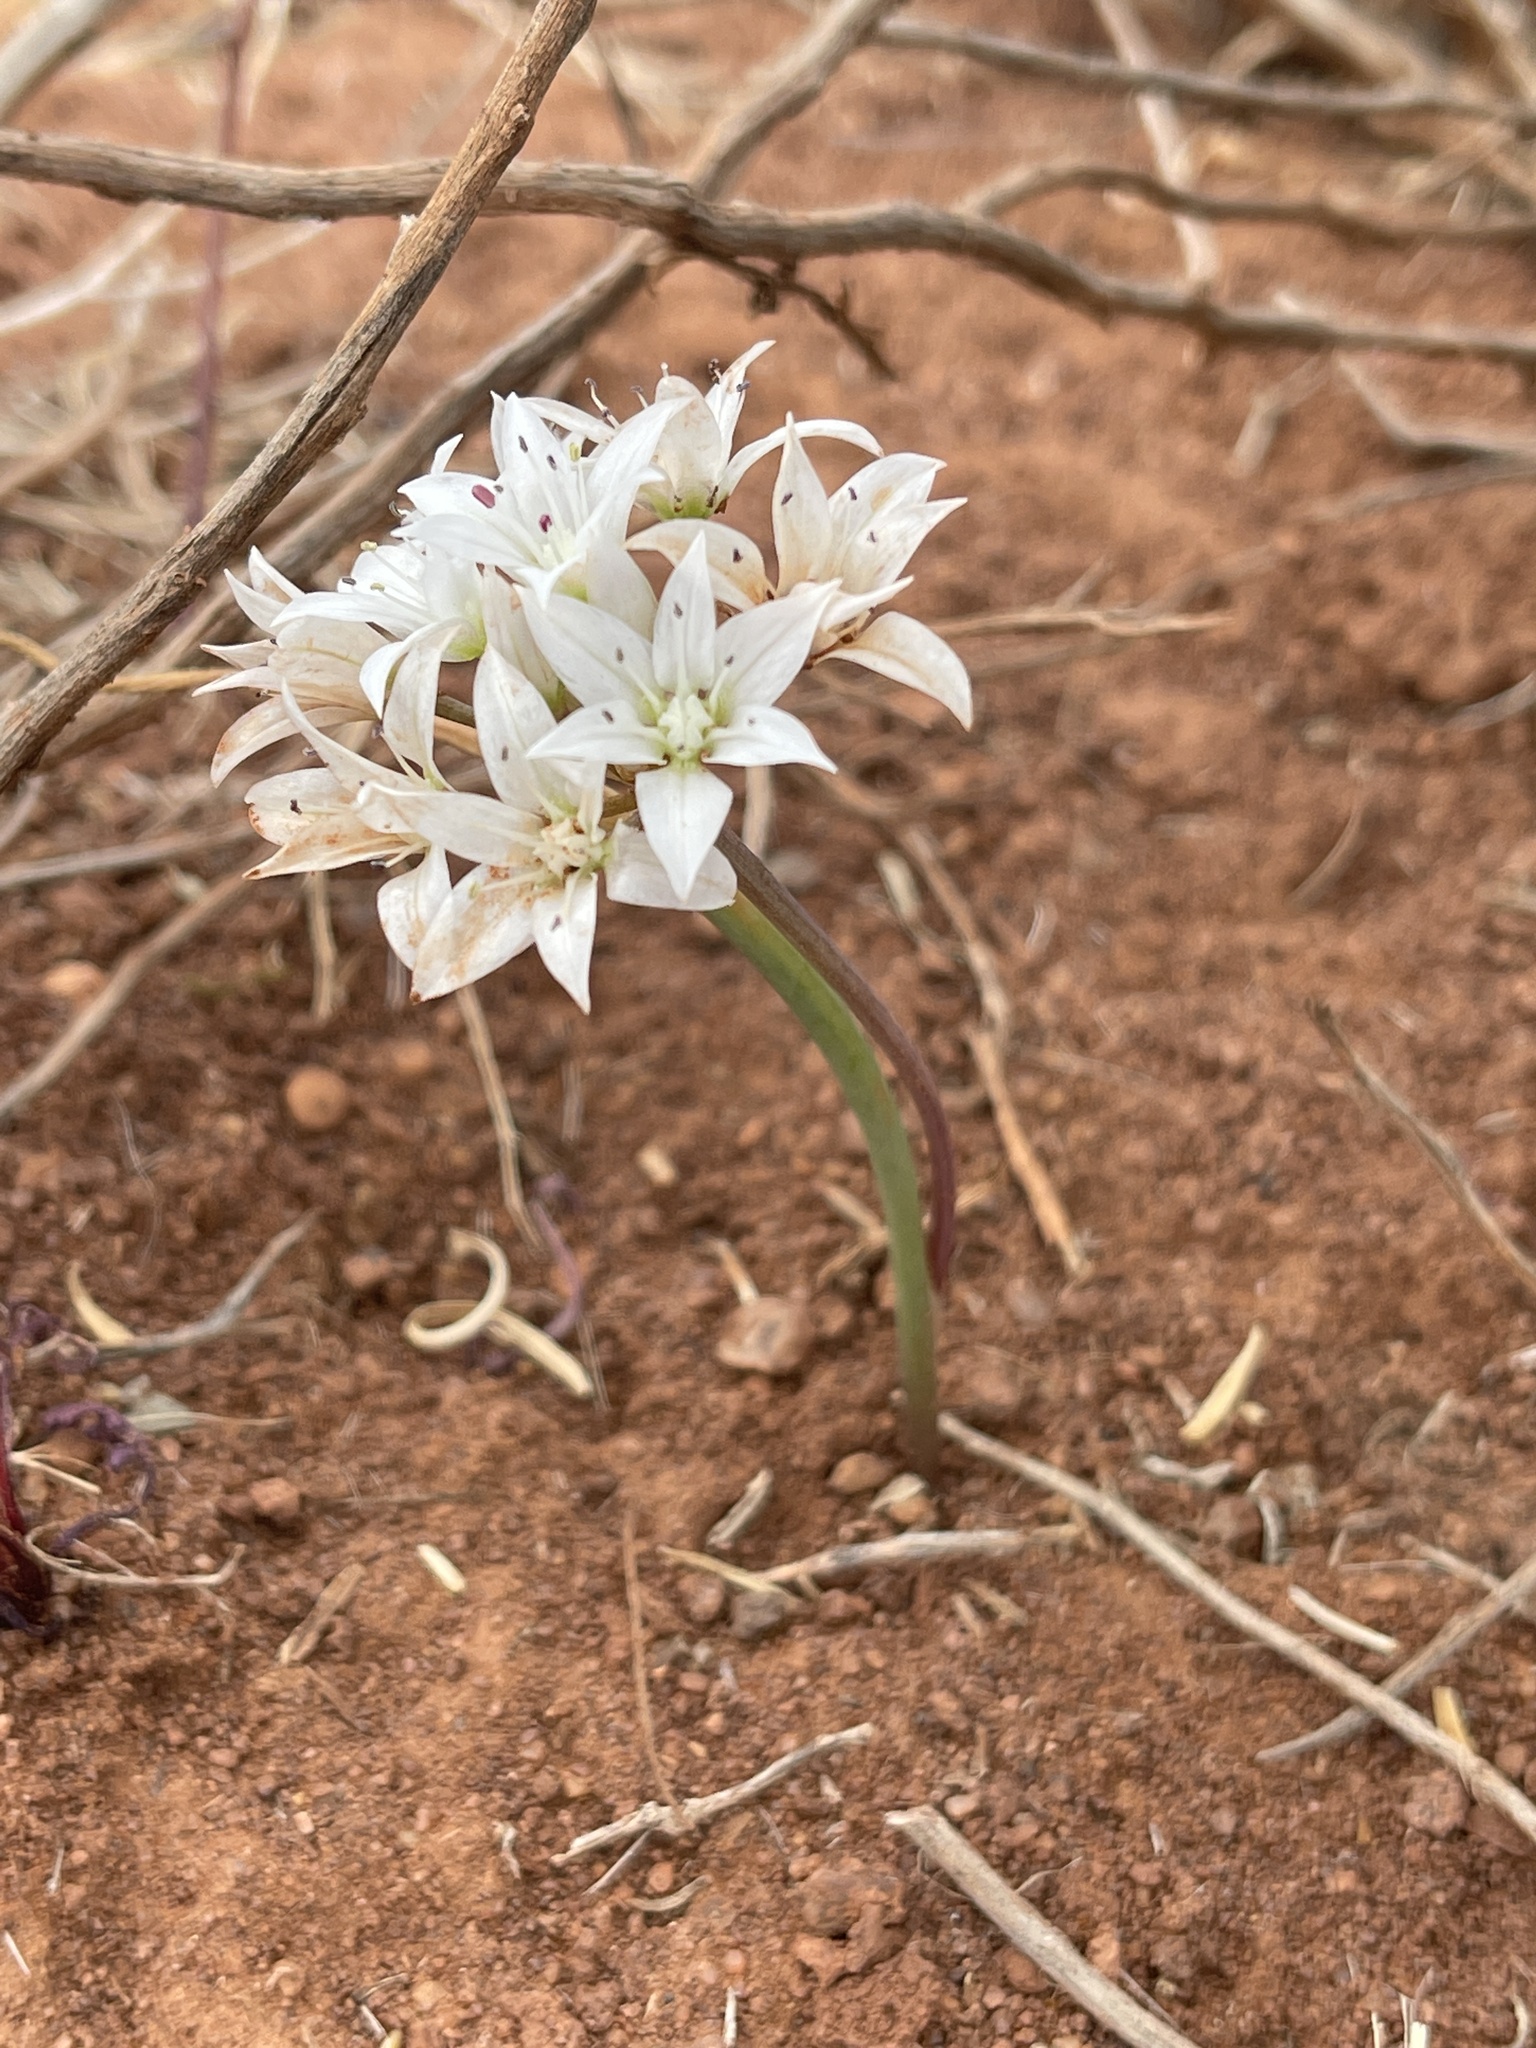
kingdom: Plantae
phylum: Tracheophyta
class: Liliopsida
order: Asparagales
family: Amaryllidaceae
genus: Allium
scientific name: Allium nevadense
